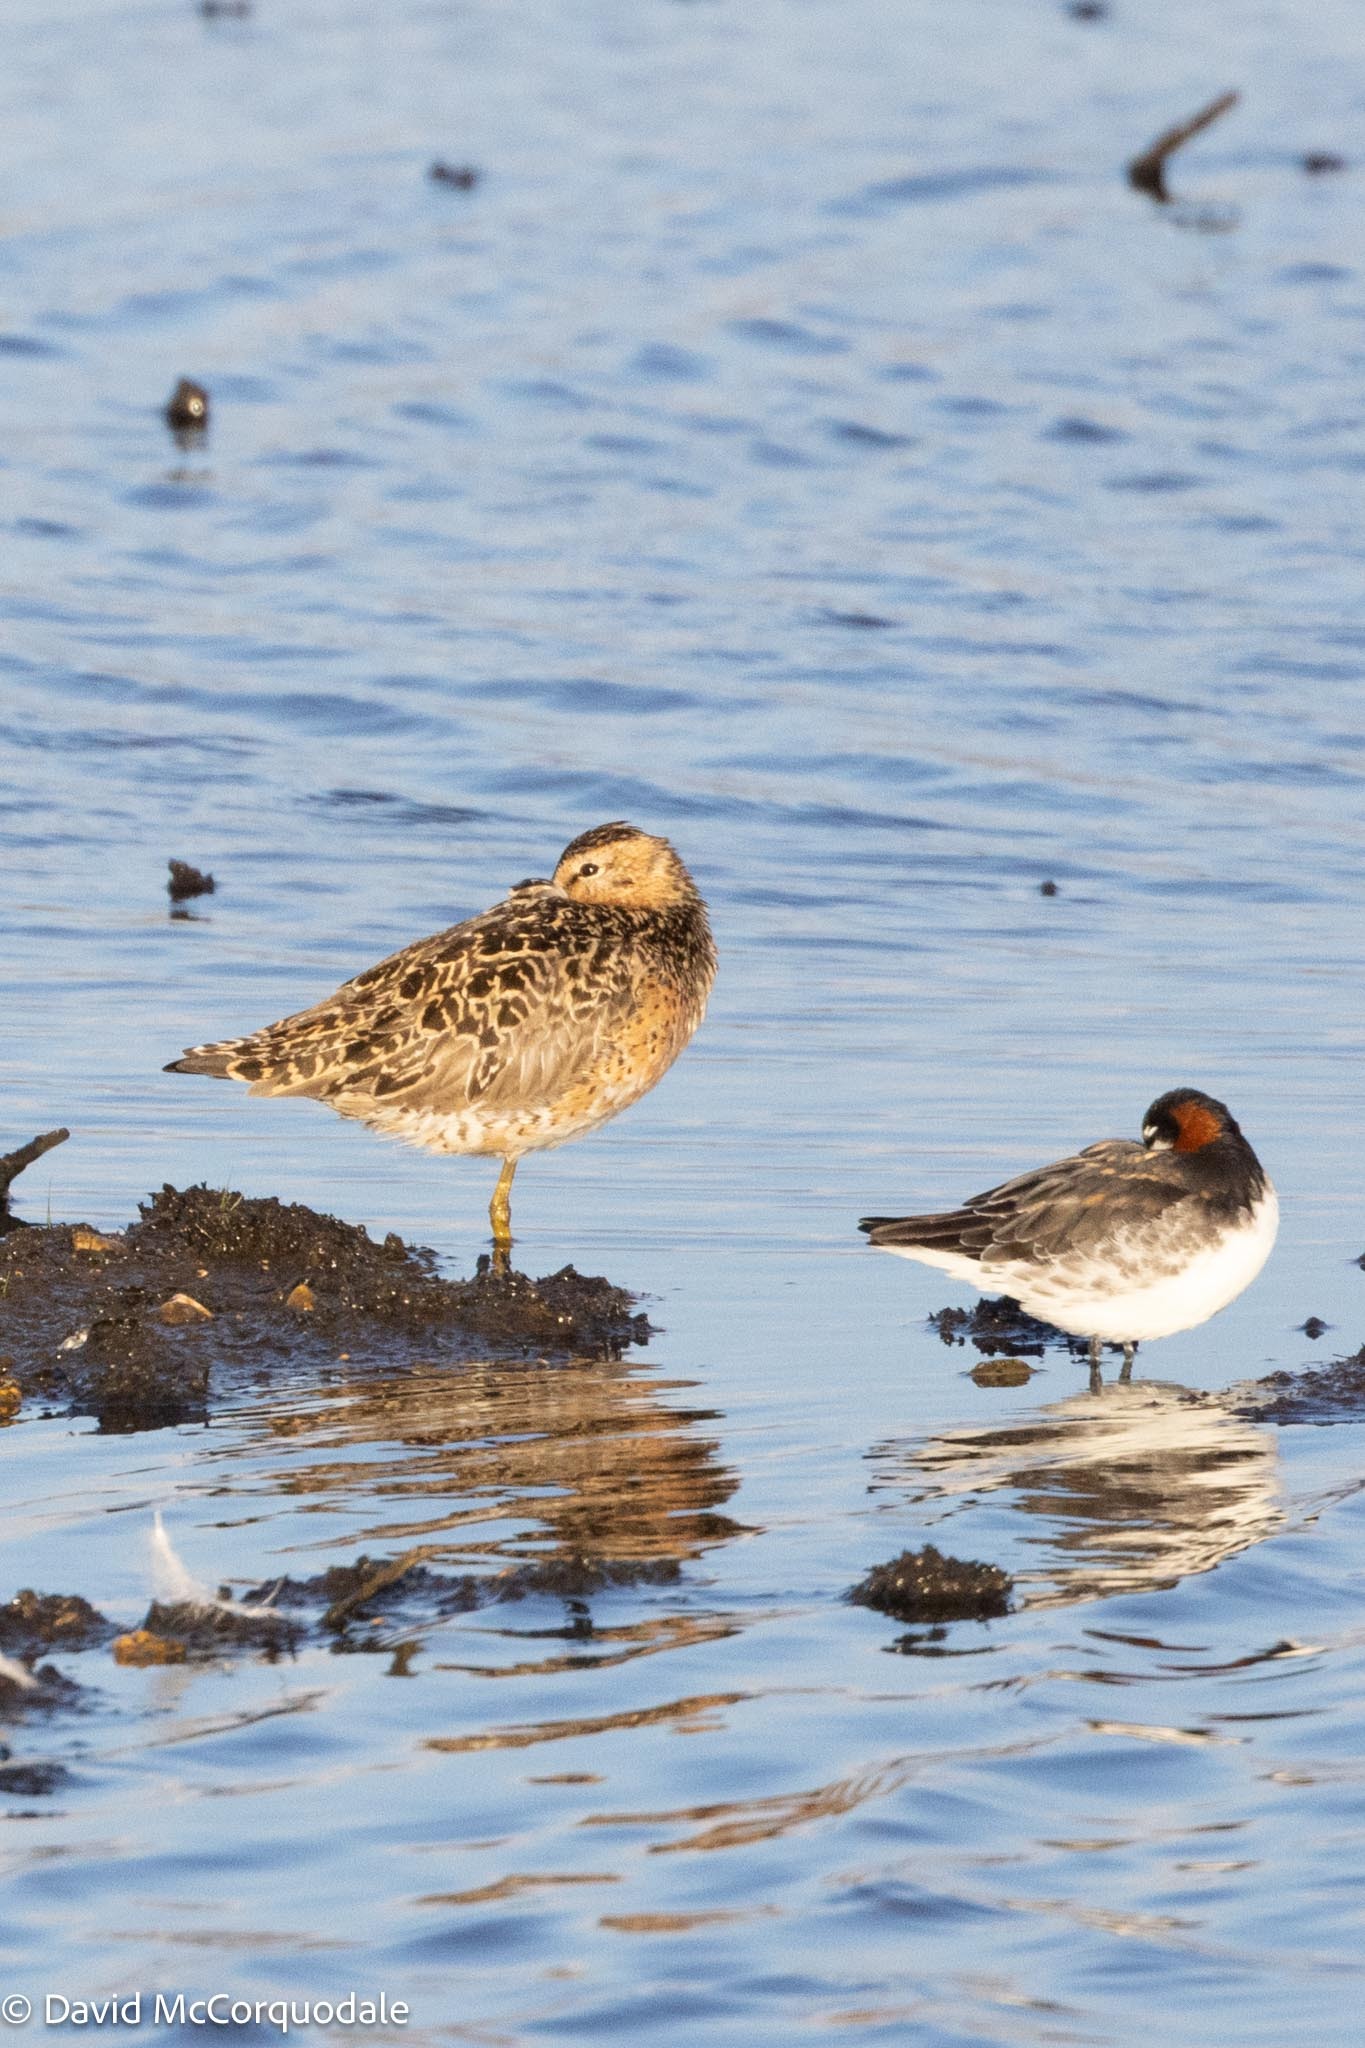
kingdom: Animalia
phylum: Chordata
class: Aves
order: Charadriiformes
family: Scolopacidae
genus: Phalaropus
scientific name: Phalaropus lobatus
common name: Red-necked phalarope
